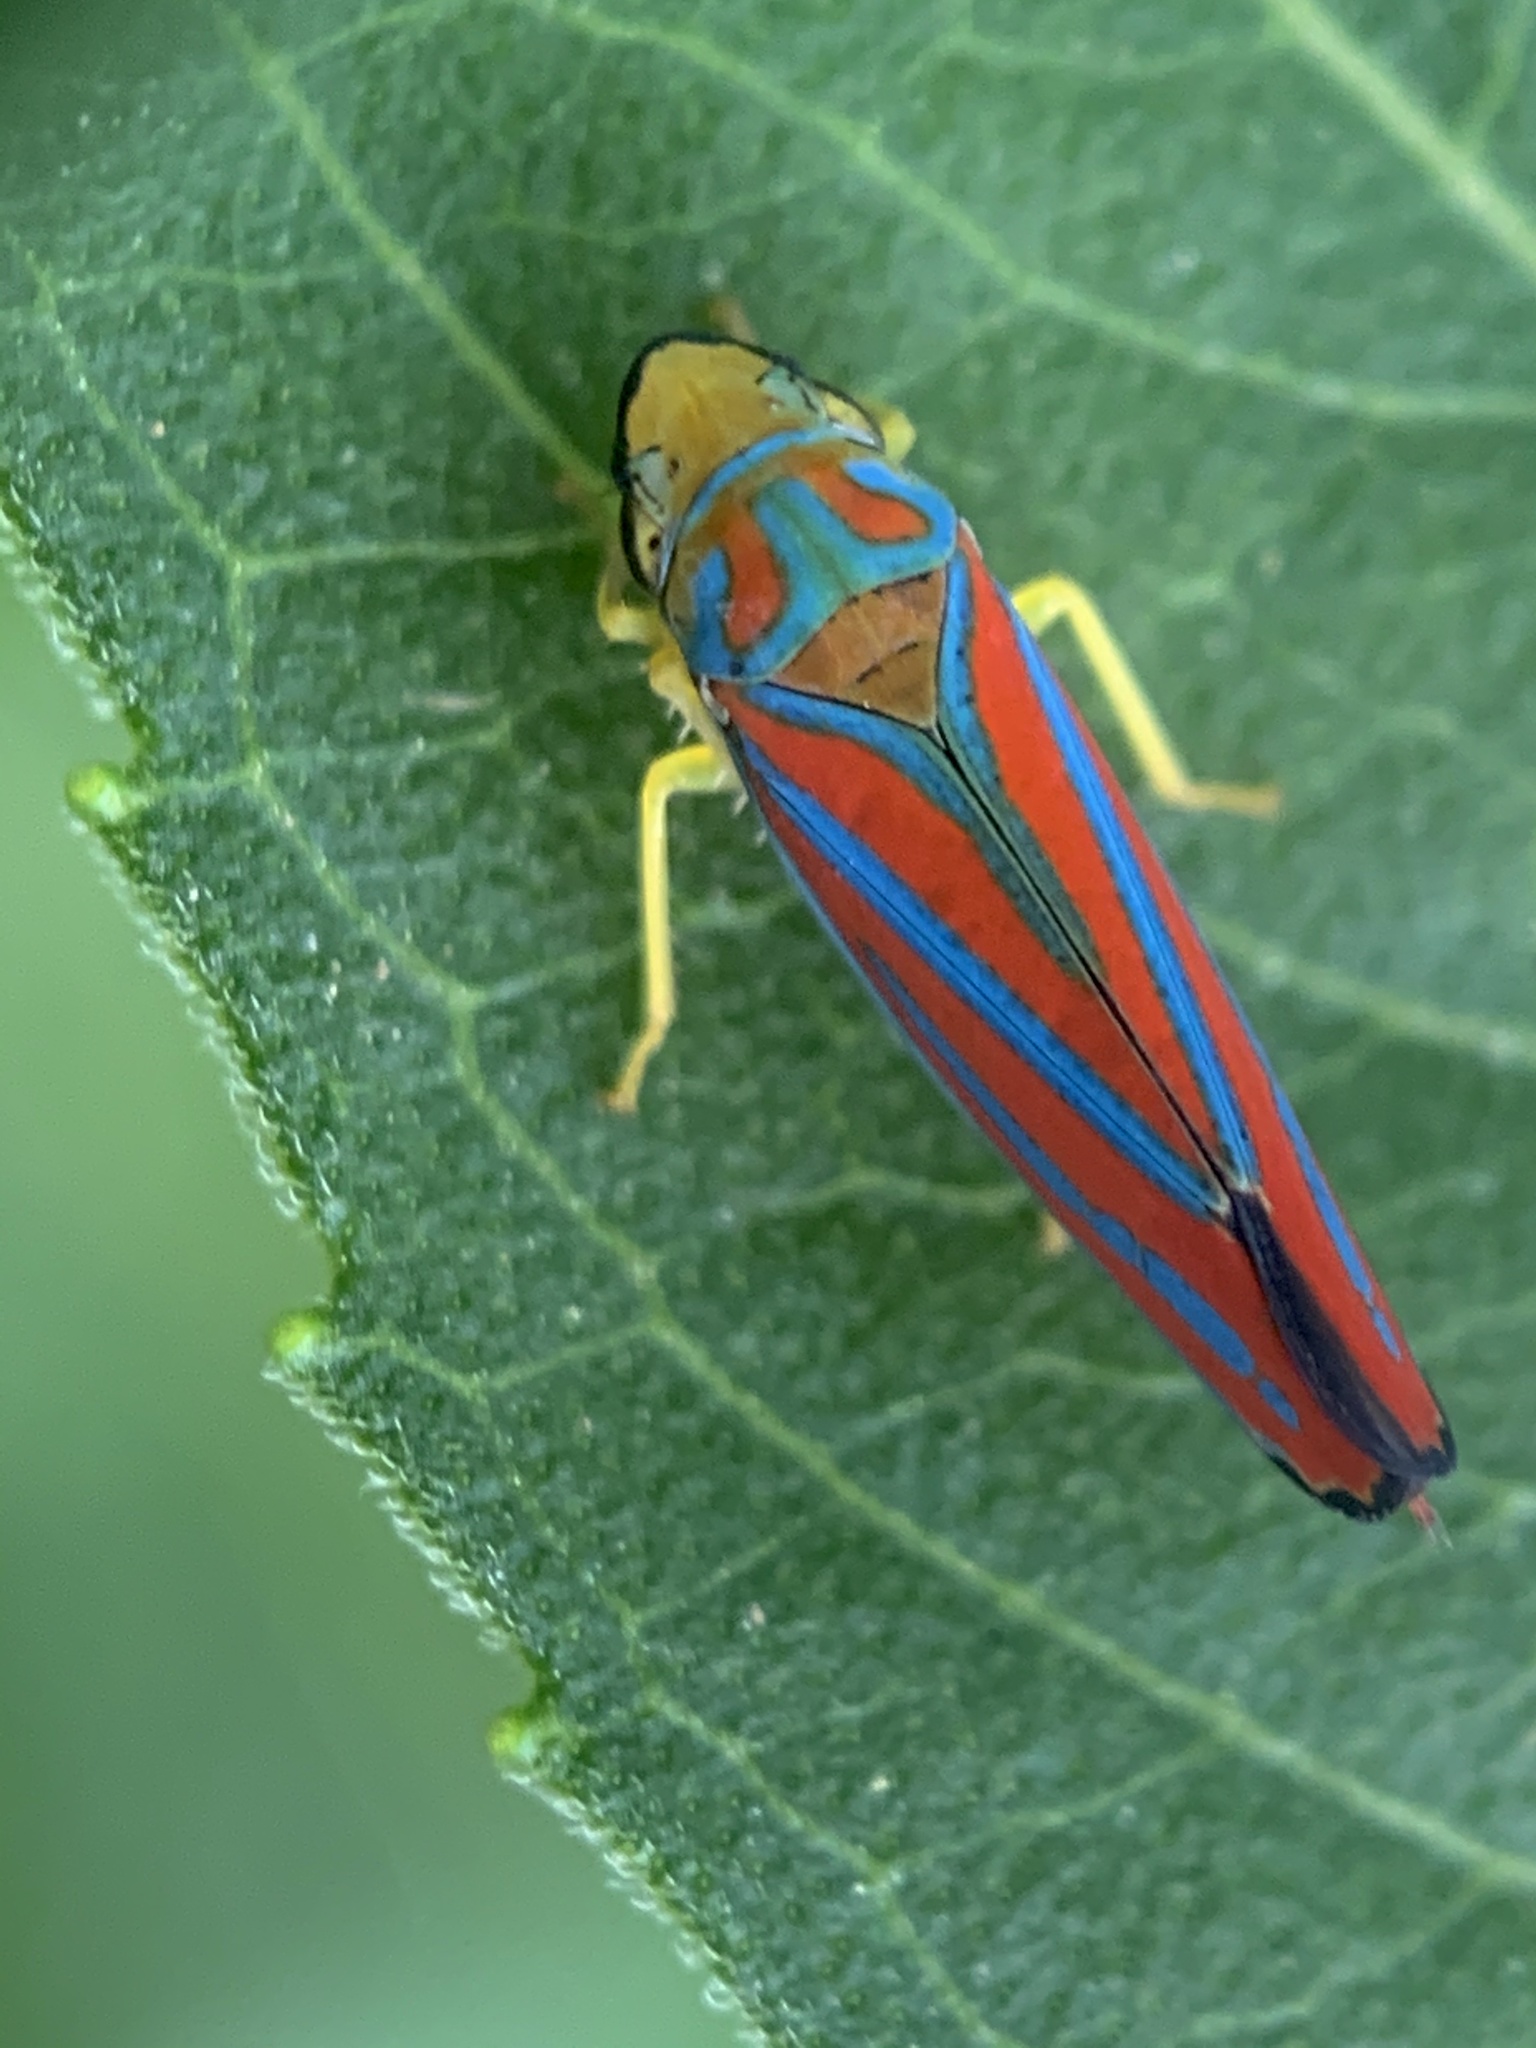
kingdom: Animalia
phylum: Arthropoda
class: Insecta
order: Hemiptera
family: Cicadellidae
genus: Graphocephala
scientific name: Graphocephala coccinea
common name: Candy-striped leafhopper
